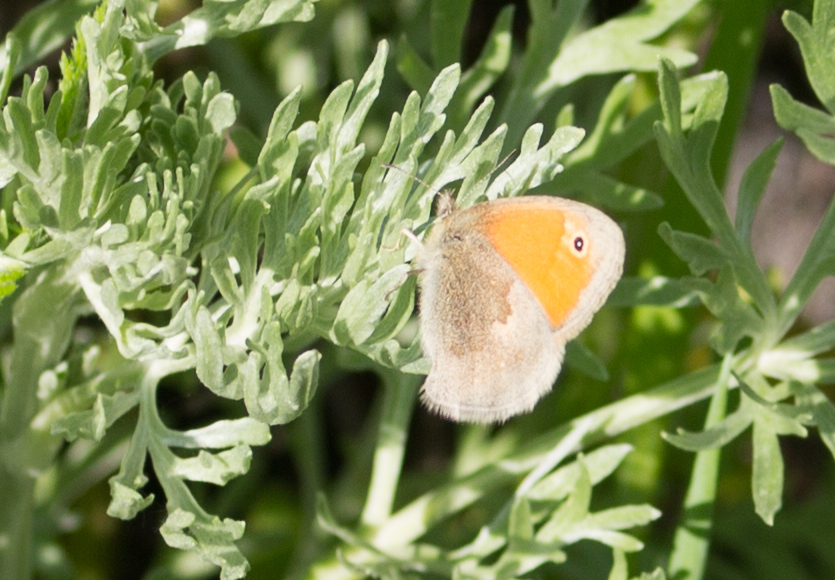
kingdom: Animalia
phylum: Arthropoda
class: Insecta
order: Lepidoptera
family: Nymphalidae
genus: Coenonympha
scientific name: Coenonympha pamphilus
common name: Small heath
